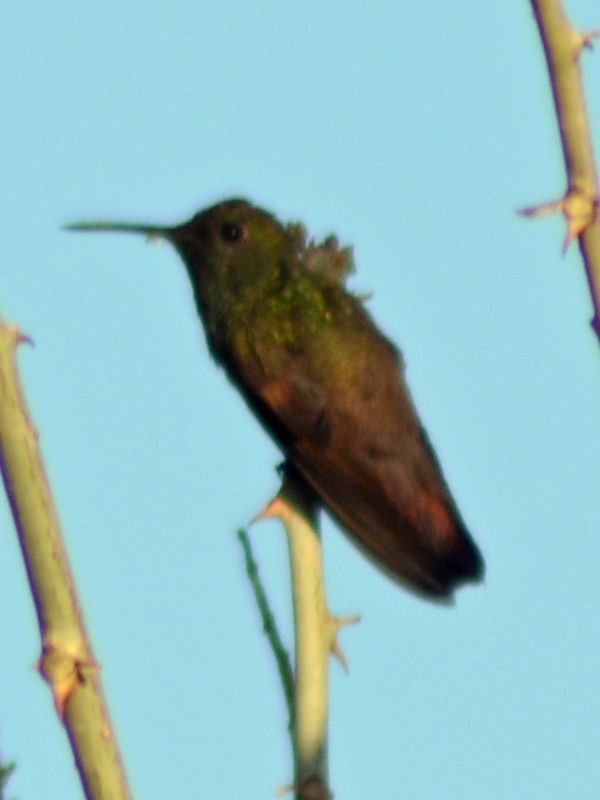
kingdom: Animalia
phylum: Chordata
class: Aves
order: Apodiformes
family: Trochilidae
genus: Saucerottia
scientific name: Saucerottia beryllina
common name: Berylline hummingbird
